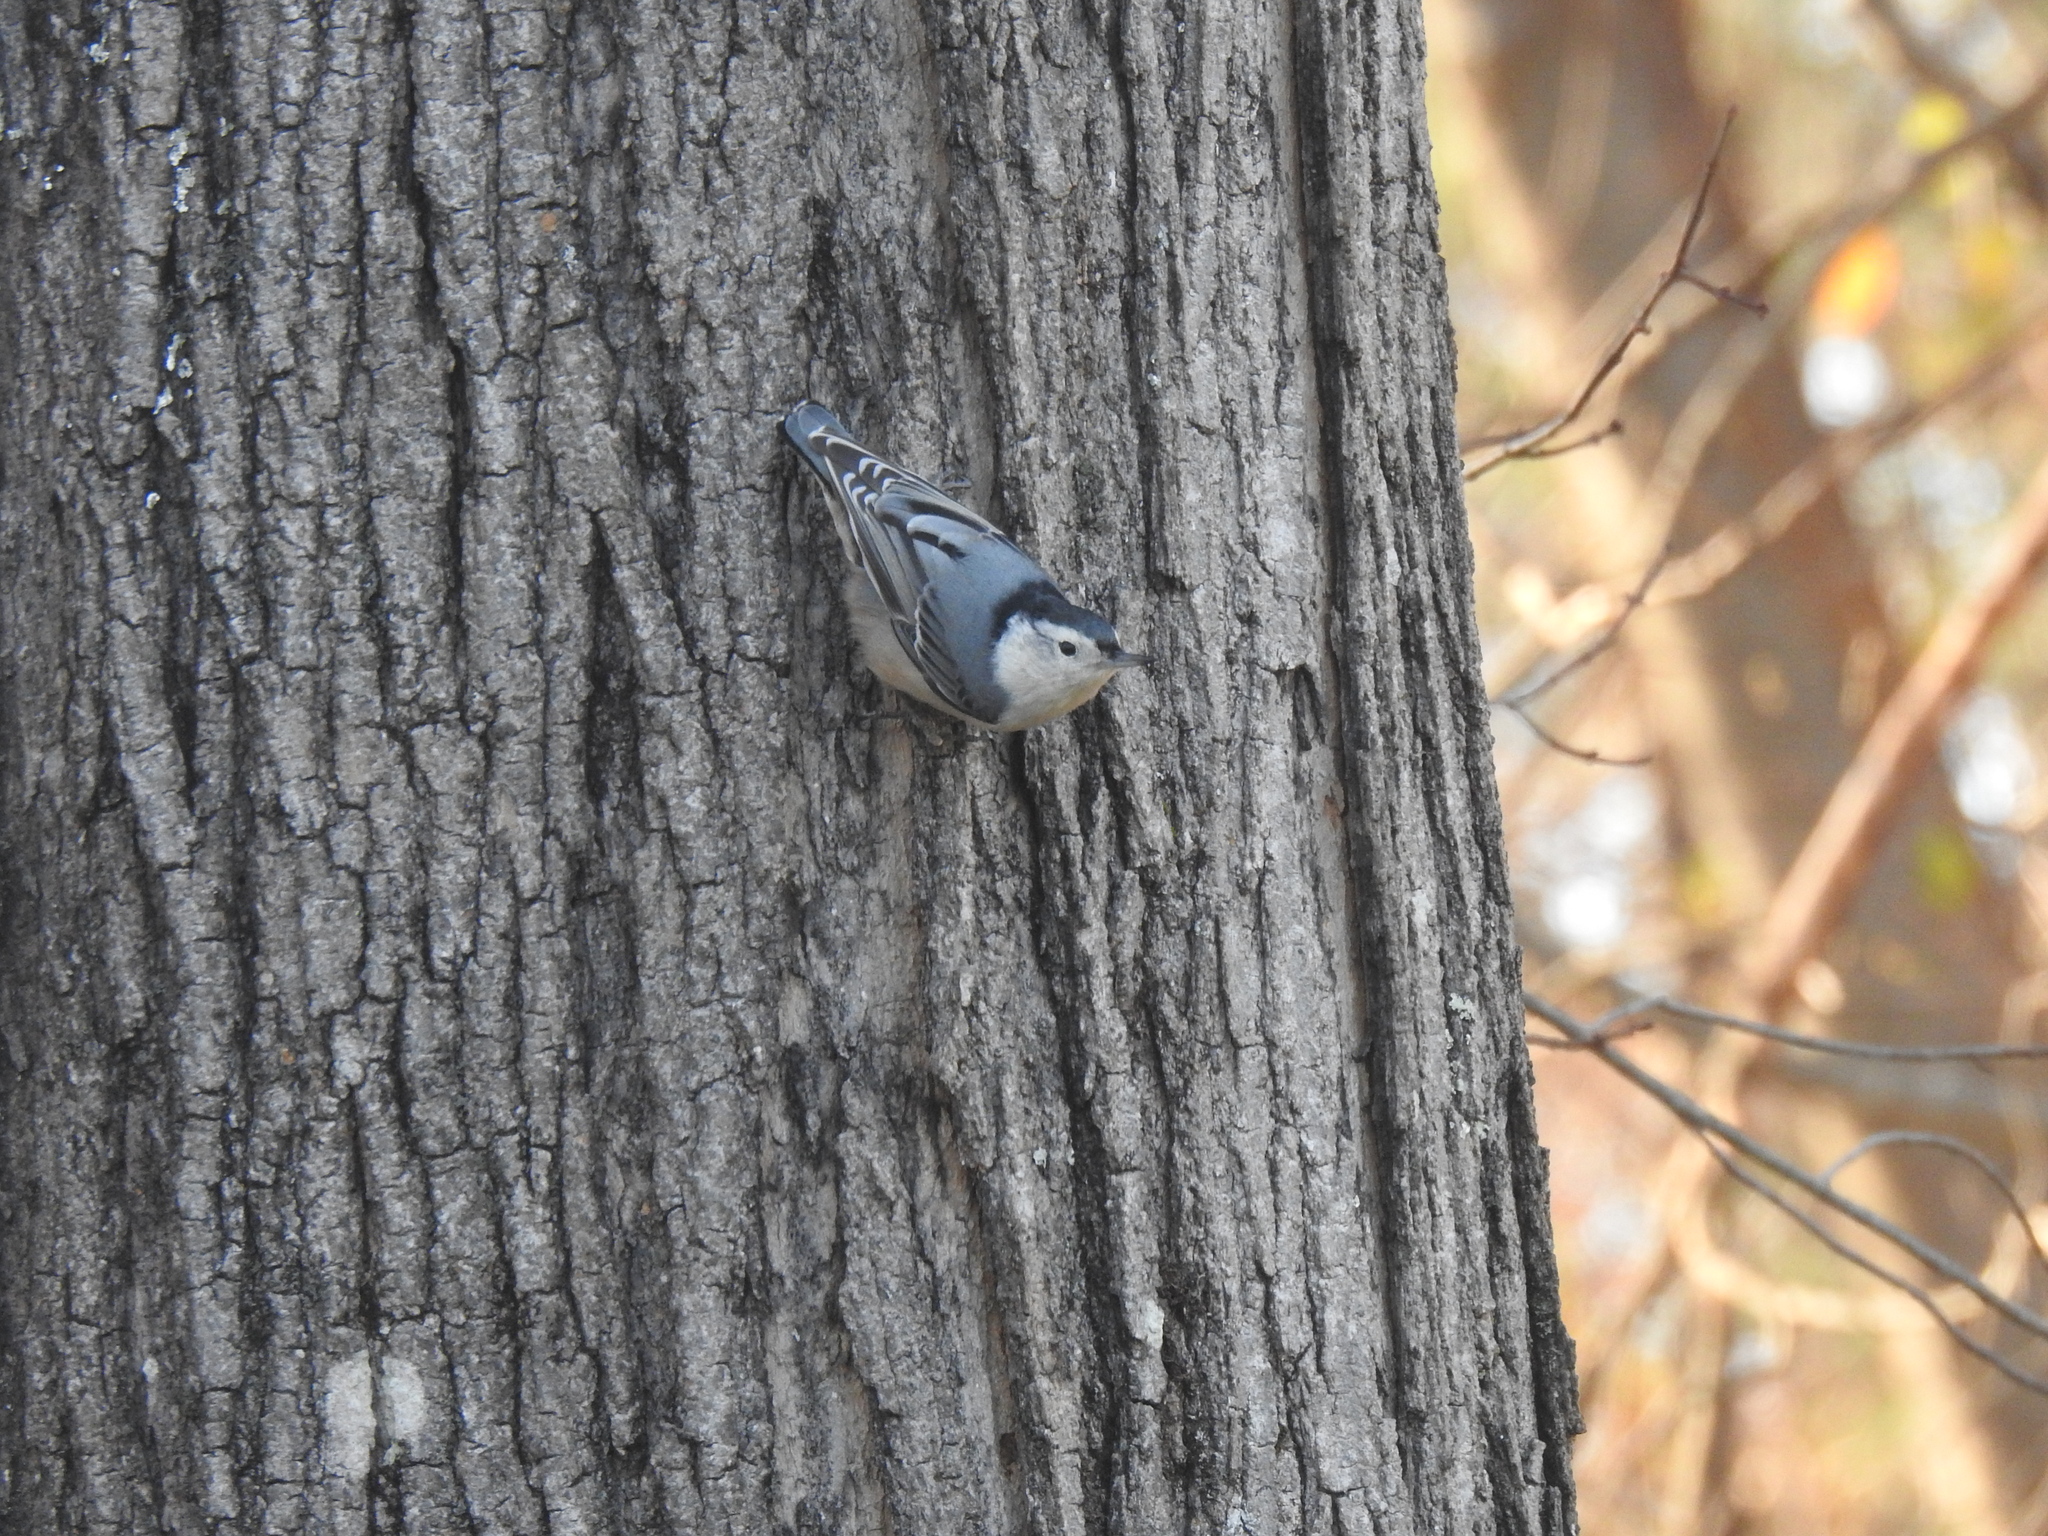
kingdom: Animalia
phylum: Chordata
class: Aves
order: Passeriformes
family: Sittidae
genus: Sitta
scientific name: Sitta carolinensis
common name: White-breasted nuthatch
